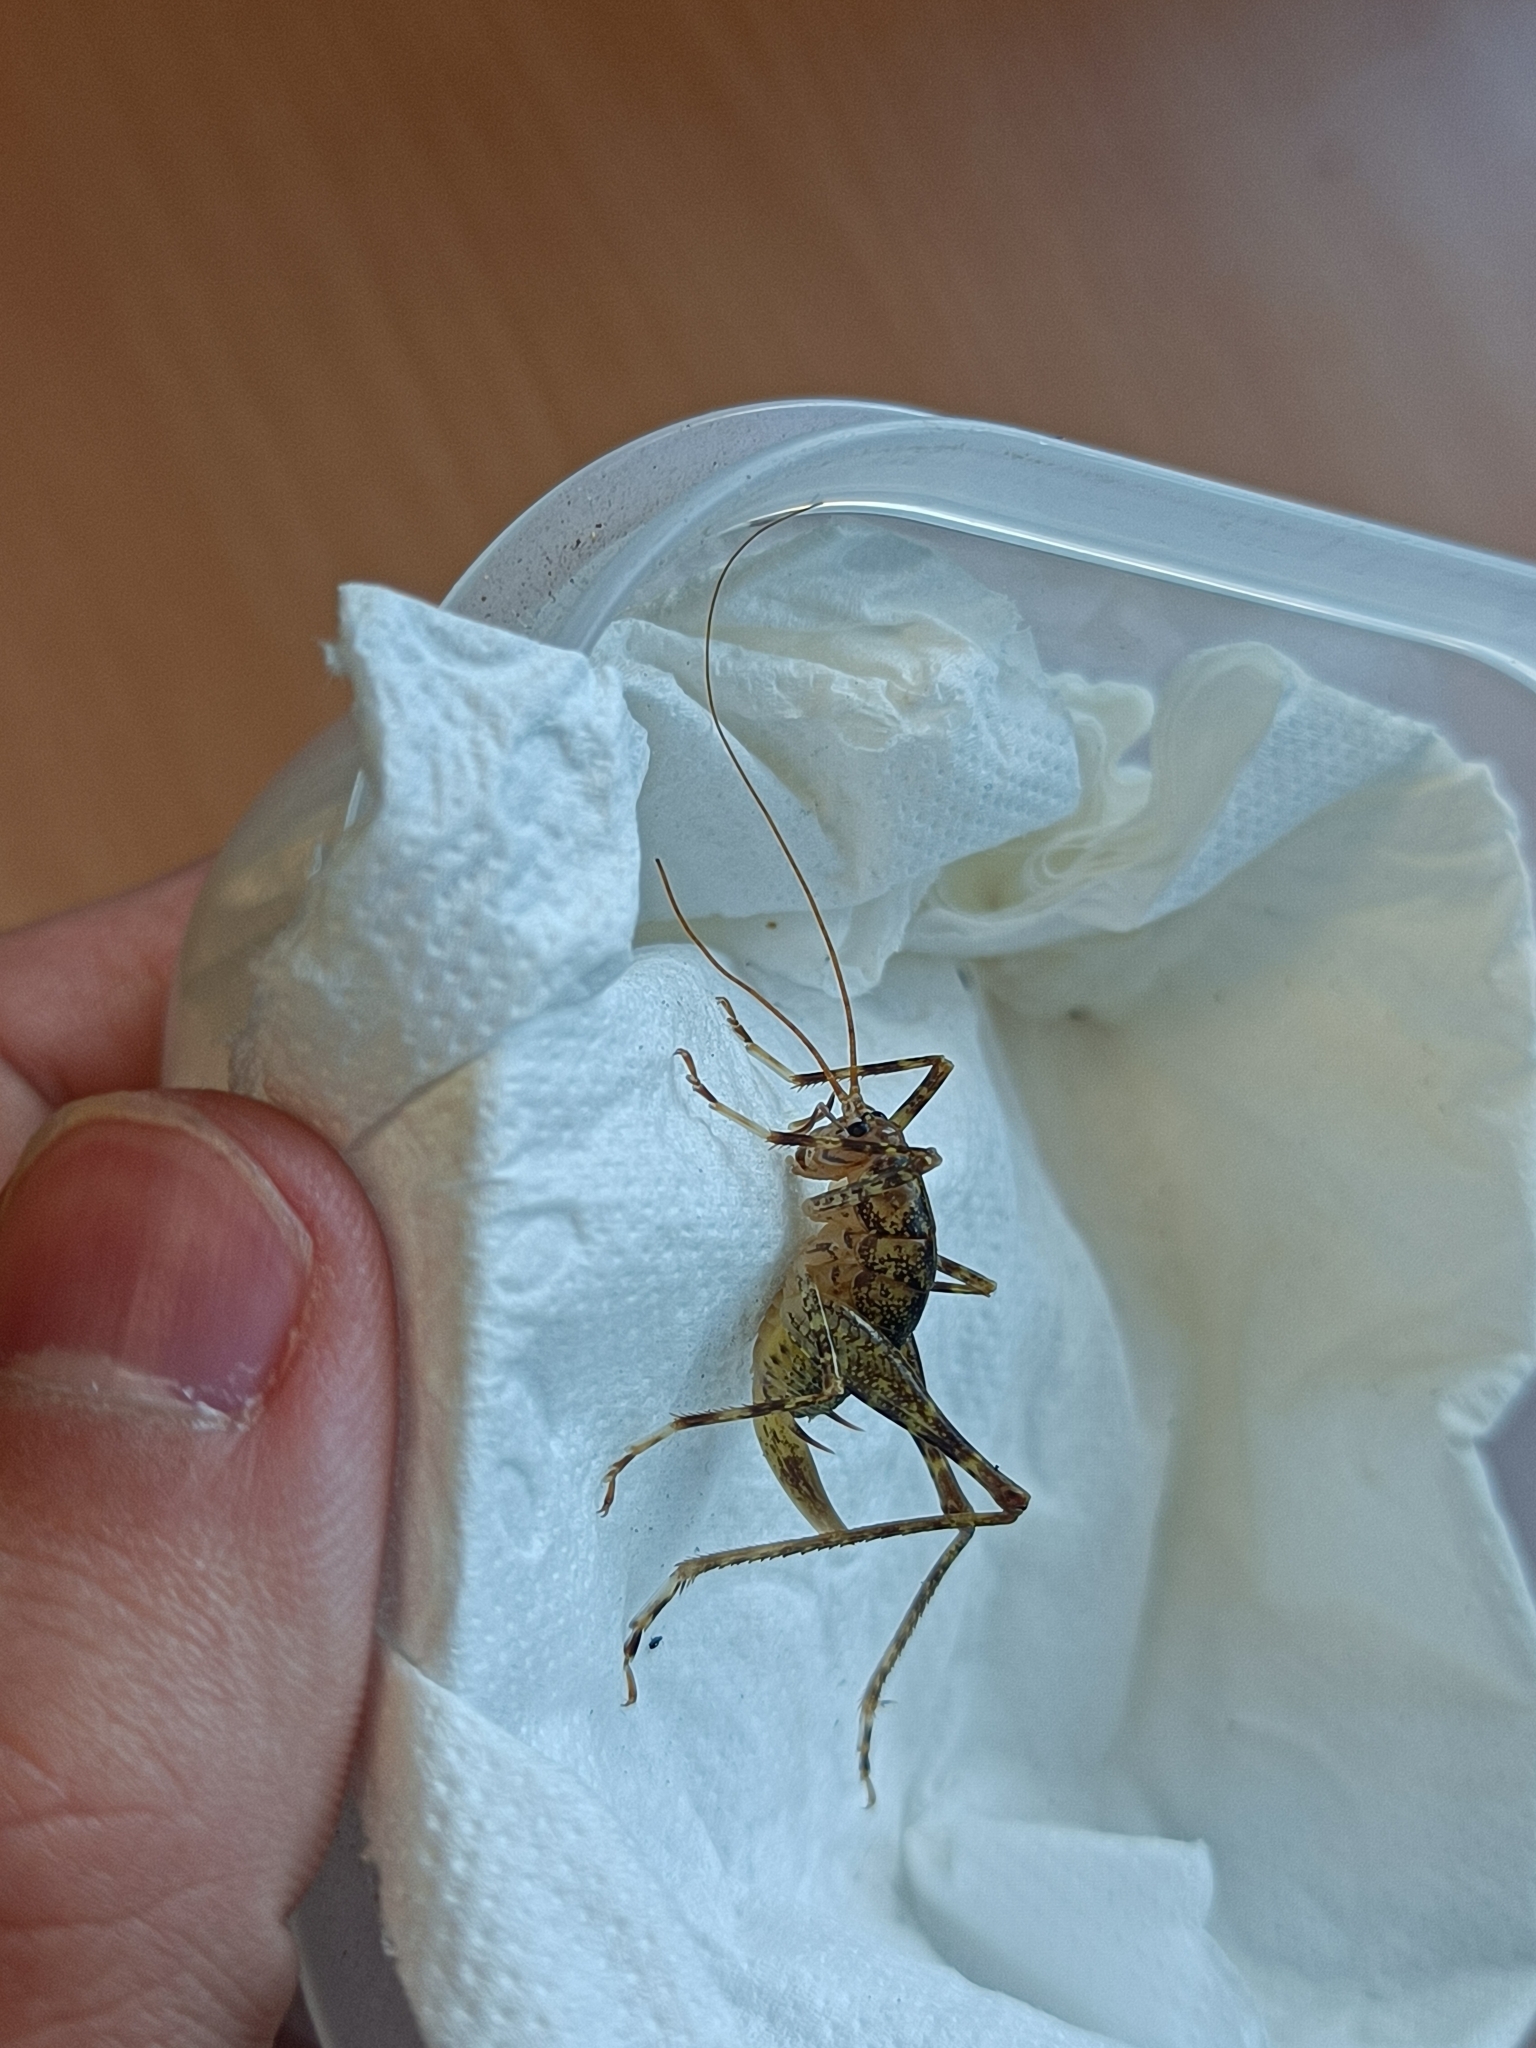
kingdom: Animalia
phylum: Arthropoda
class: Insecta
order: Orthoptera
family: Rhaphidophoridae
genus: Troglophilus
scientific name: Troglophilus neglectus
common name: Neglected cave-cricket
